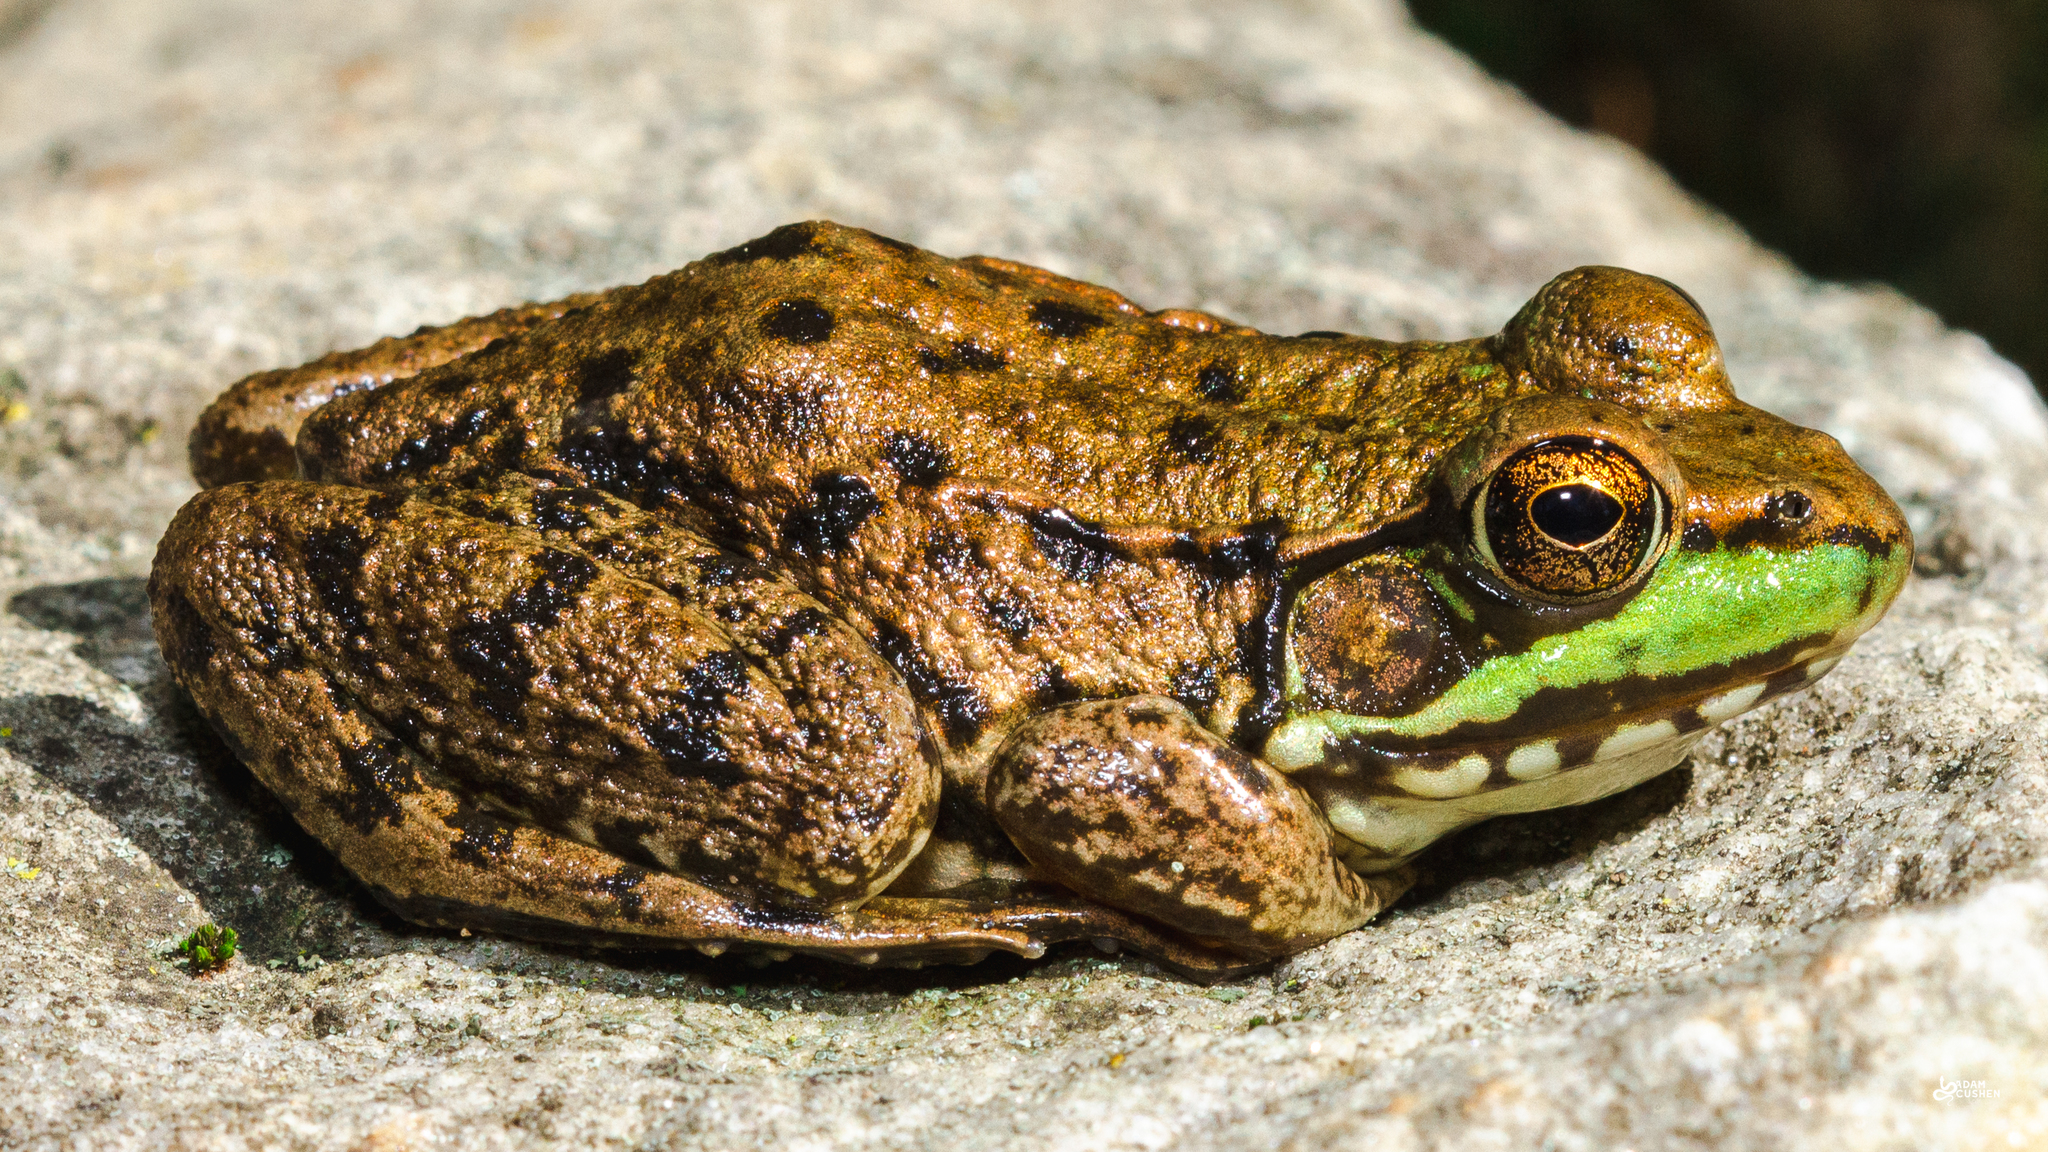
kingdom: Animalia
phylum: Chordata
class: Amphibia
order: Anura
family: Ranidae
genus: Lithobates
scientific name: Lithobates clamitans
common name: Green frog
